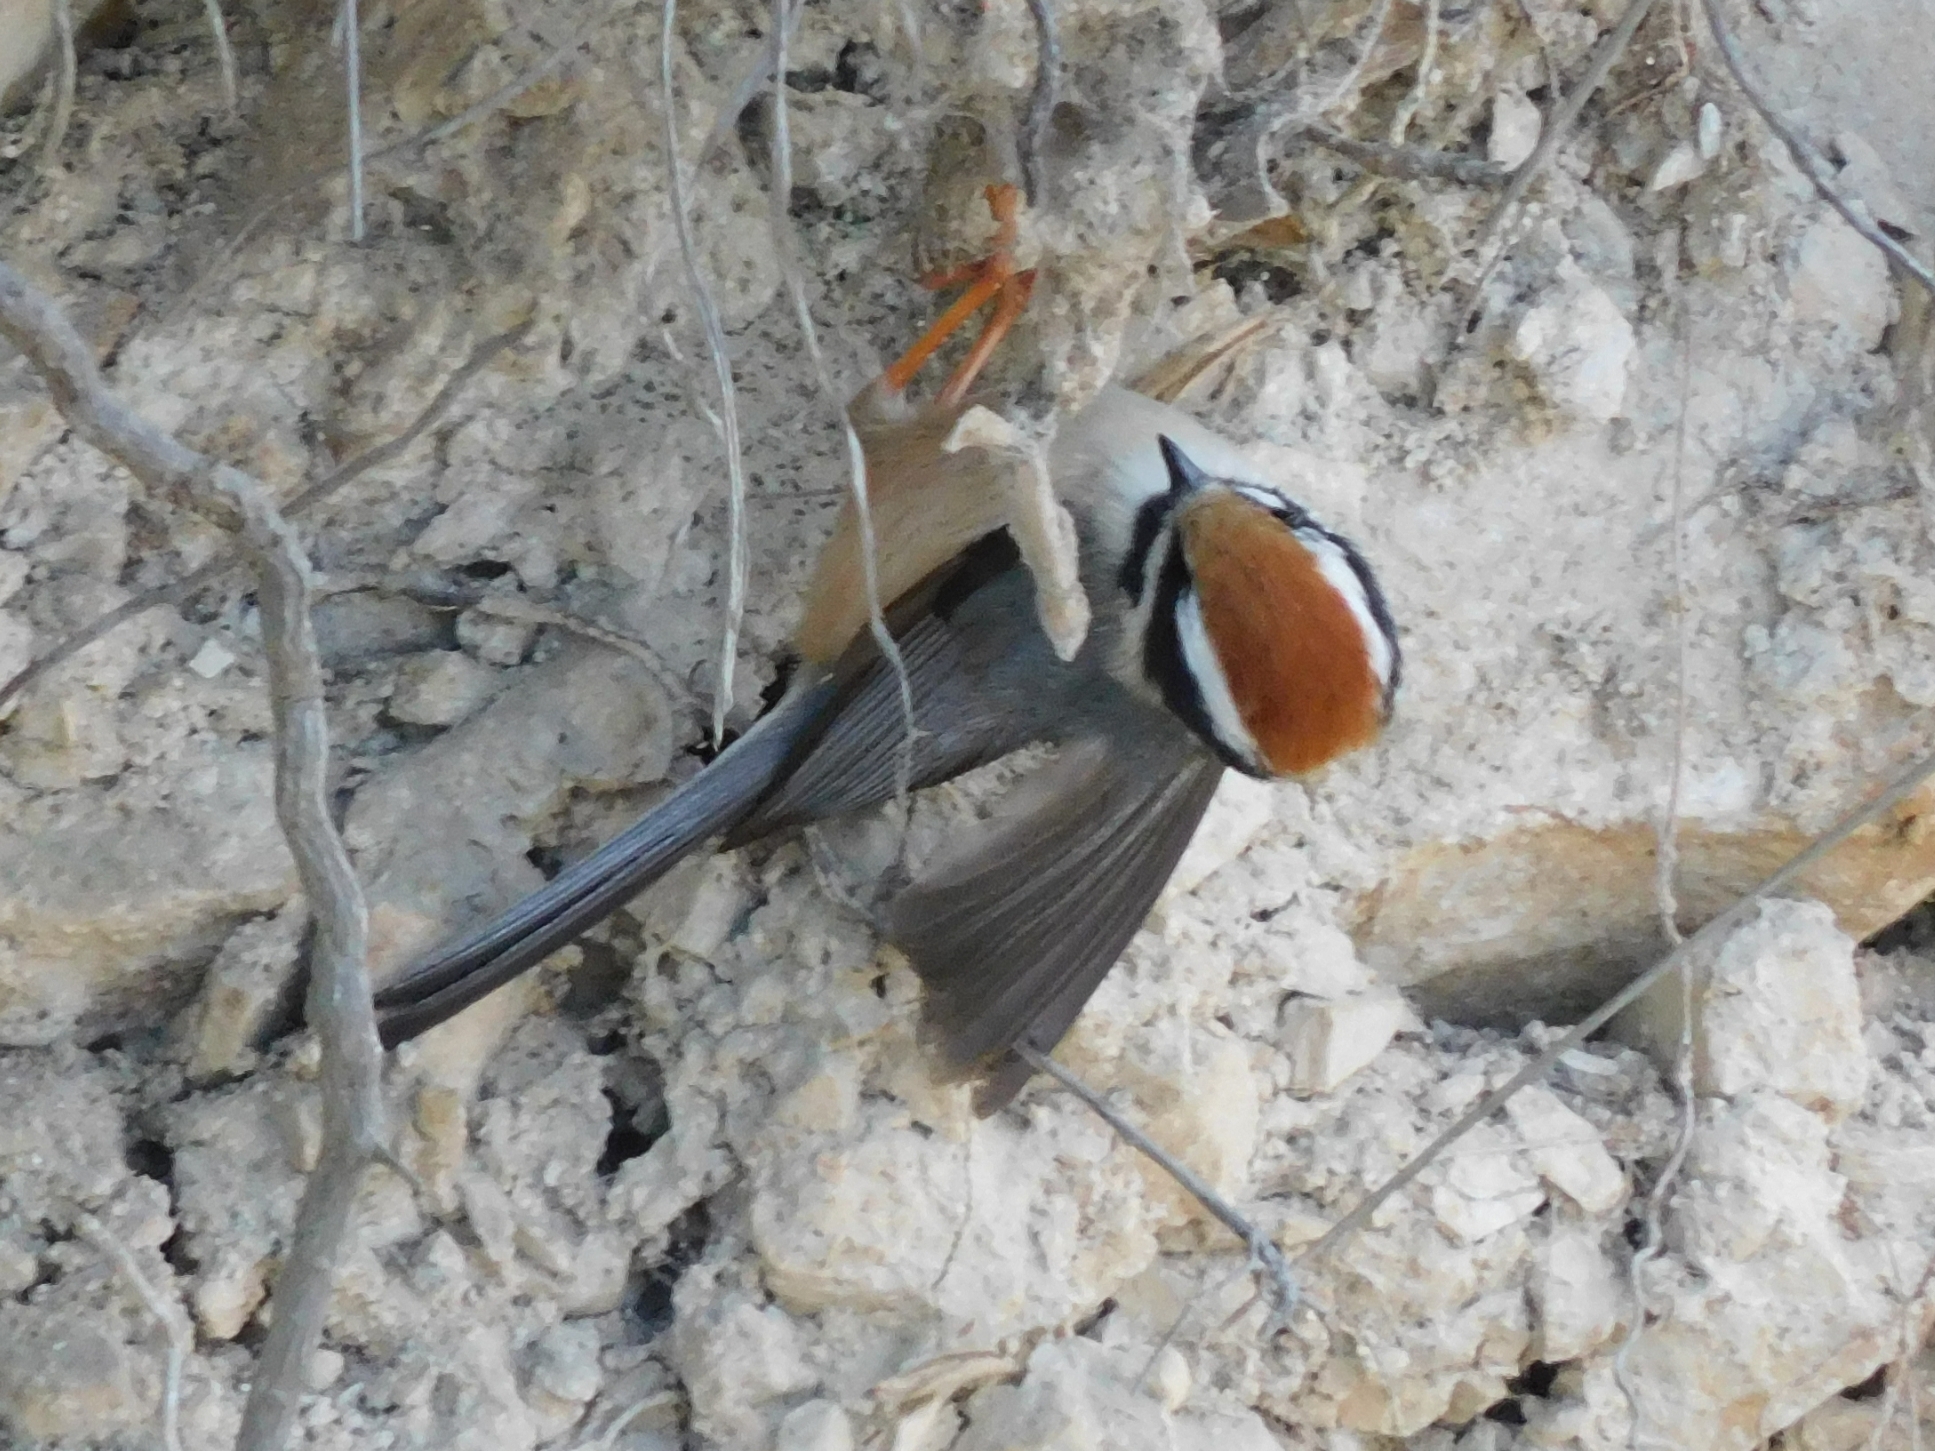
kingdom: Animalia
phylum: Chordata
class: Aves
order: Passeriformes
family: Aegithalidae
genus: Aegithalos
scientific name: Aegithalos concinnus
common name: Black-throated bushtit
